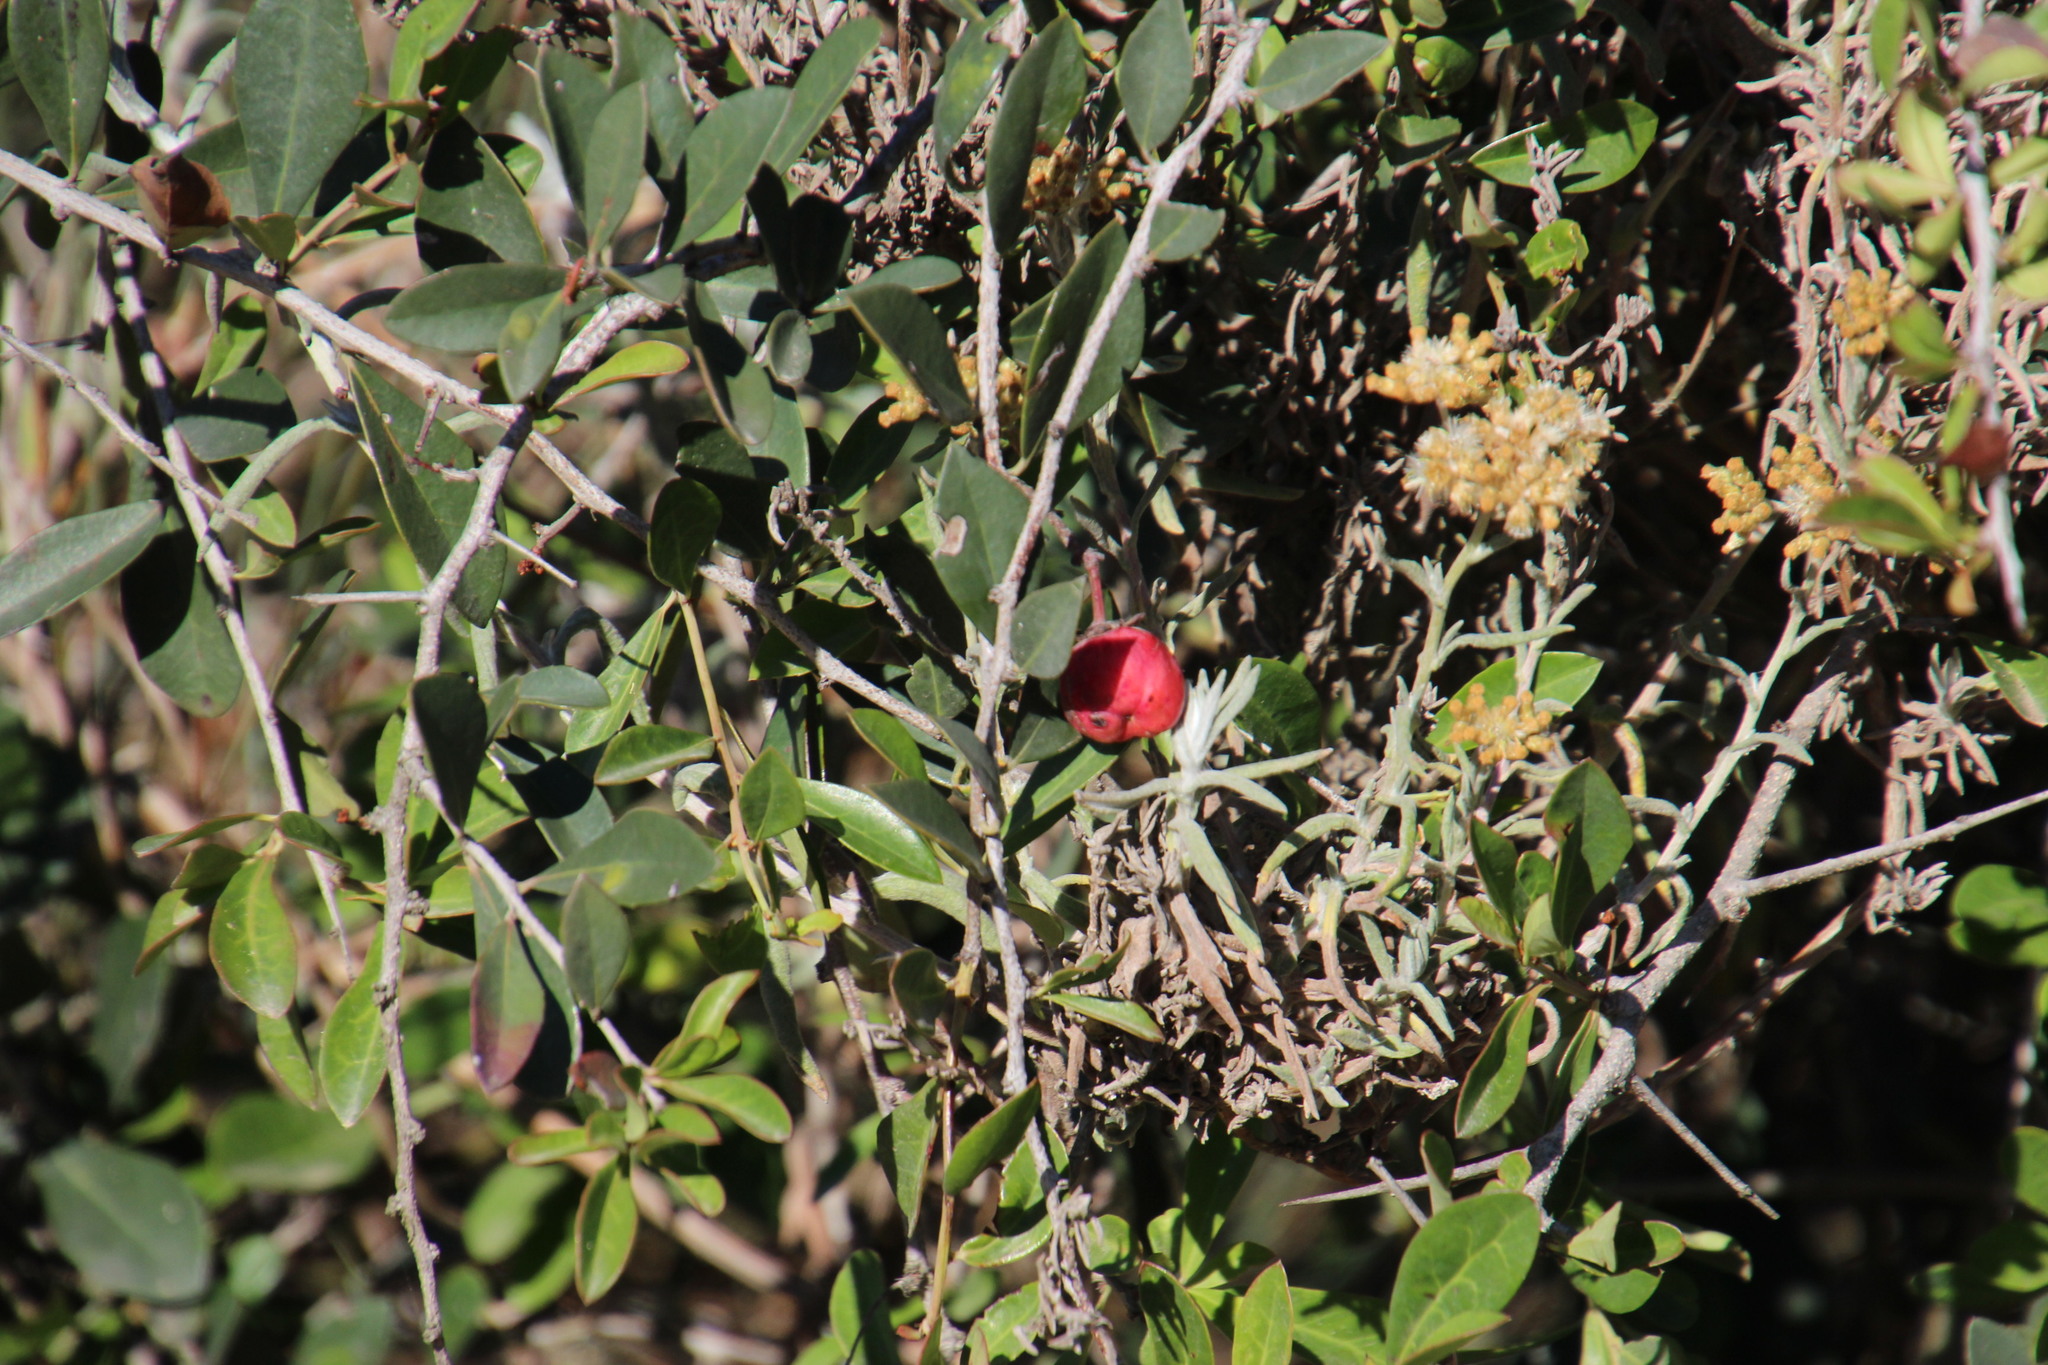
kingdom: Plantae
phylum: Tracheophyta
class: Magnoliopsida
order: Celastrales
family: Celastraceae
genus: Putterlickia
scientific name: Putterlickia pyracantha
